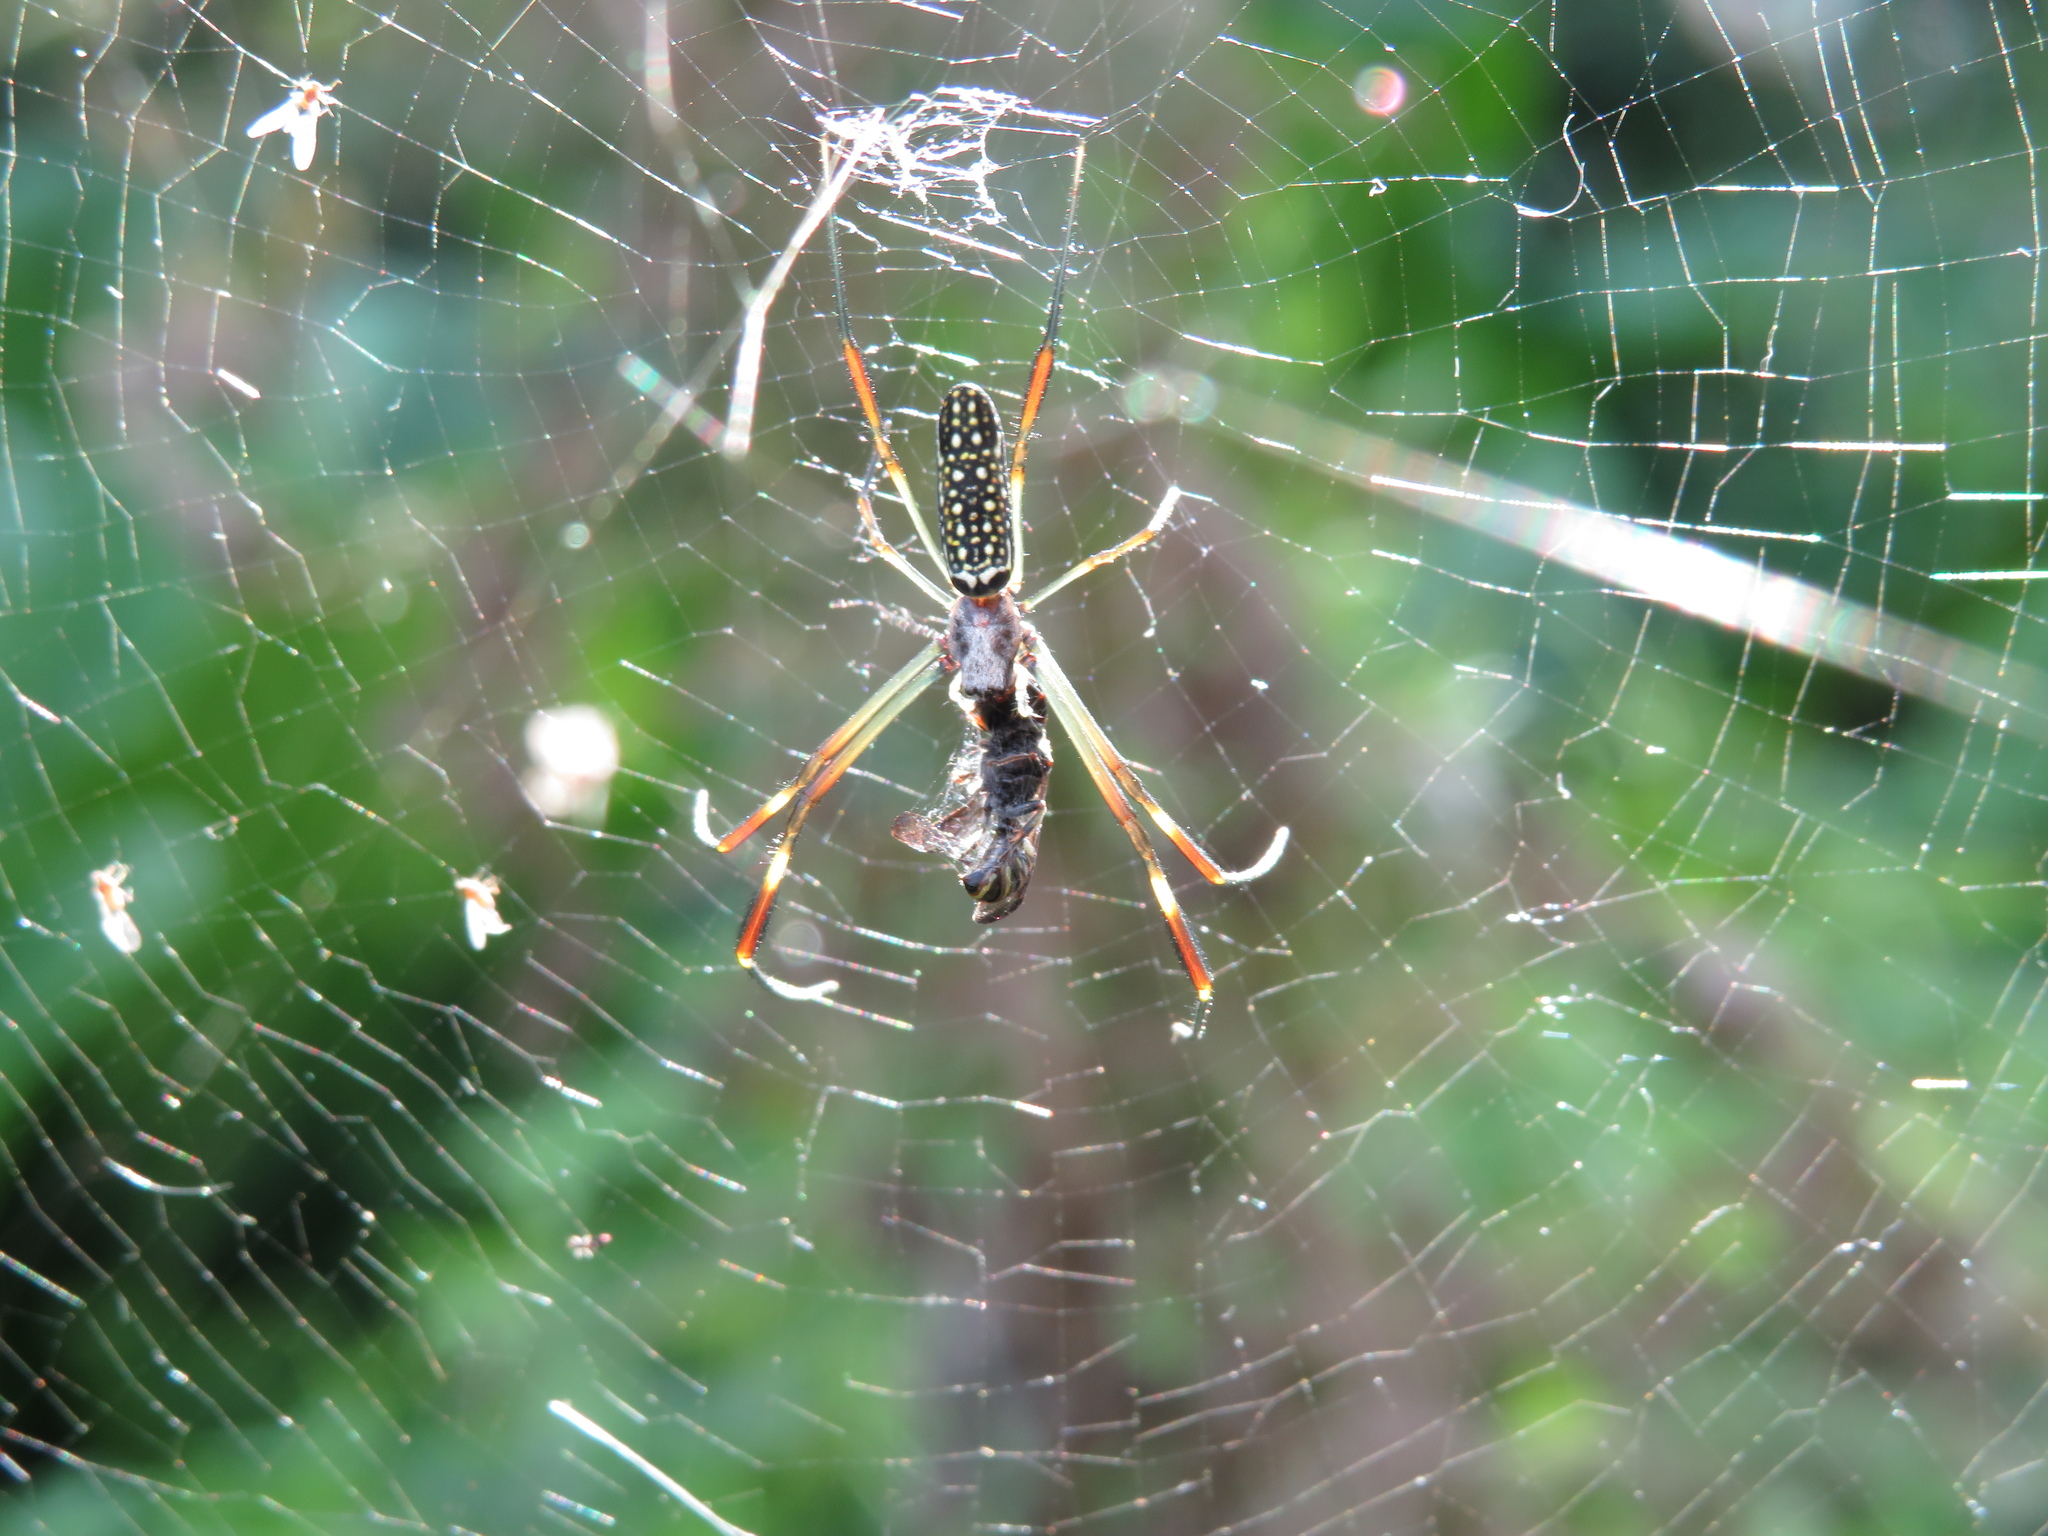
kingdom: Animalia
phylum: Arthropoda
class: Arachnida
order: Araneae
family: Araneidae
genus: Trichonephila
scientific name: Trichonephila clavipes
